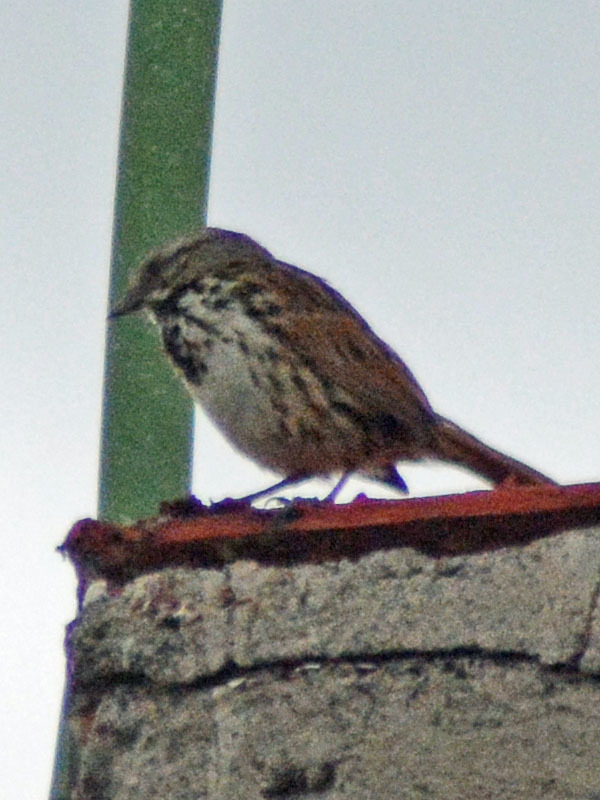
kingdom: Animalia
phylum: Chordata
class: Aves
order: Passeriformes
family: Passerellidae
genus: Melospiza
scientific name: Melospiza melodia
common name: Song sparrow
